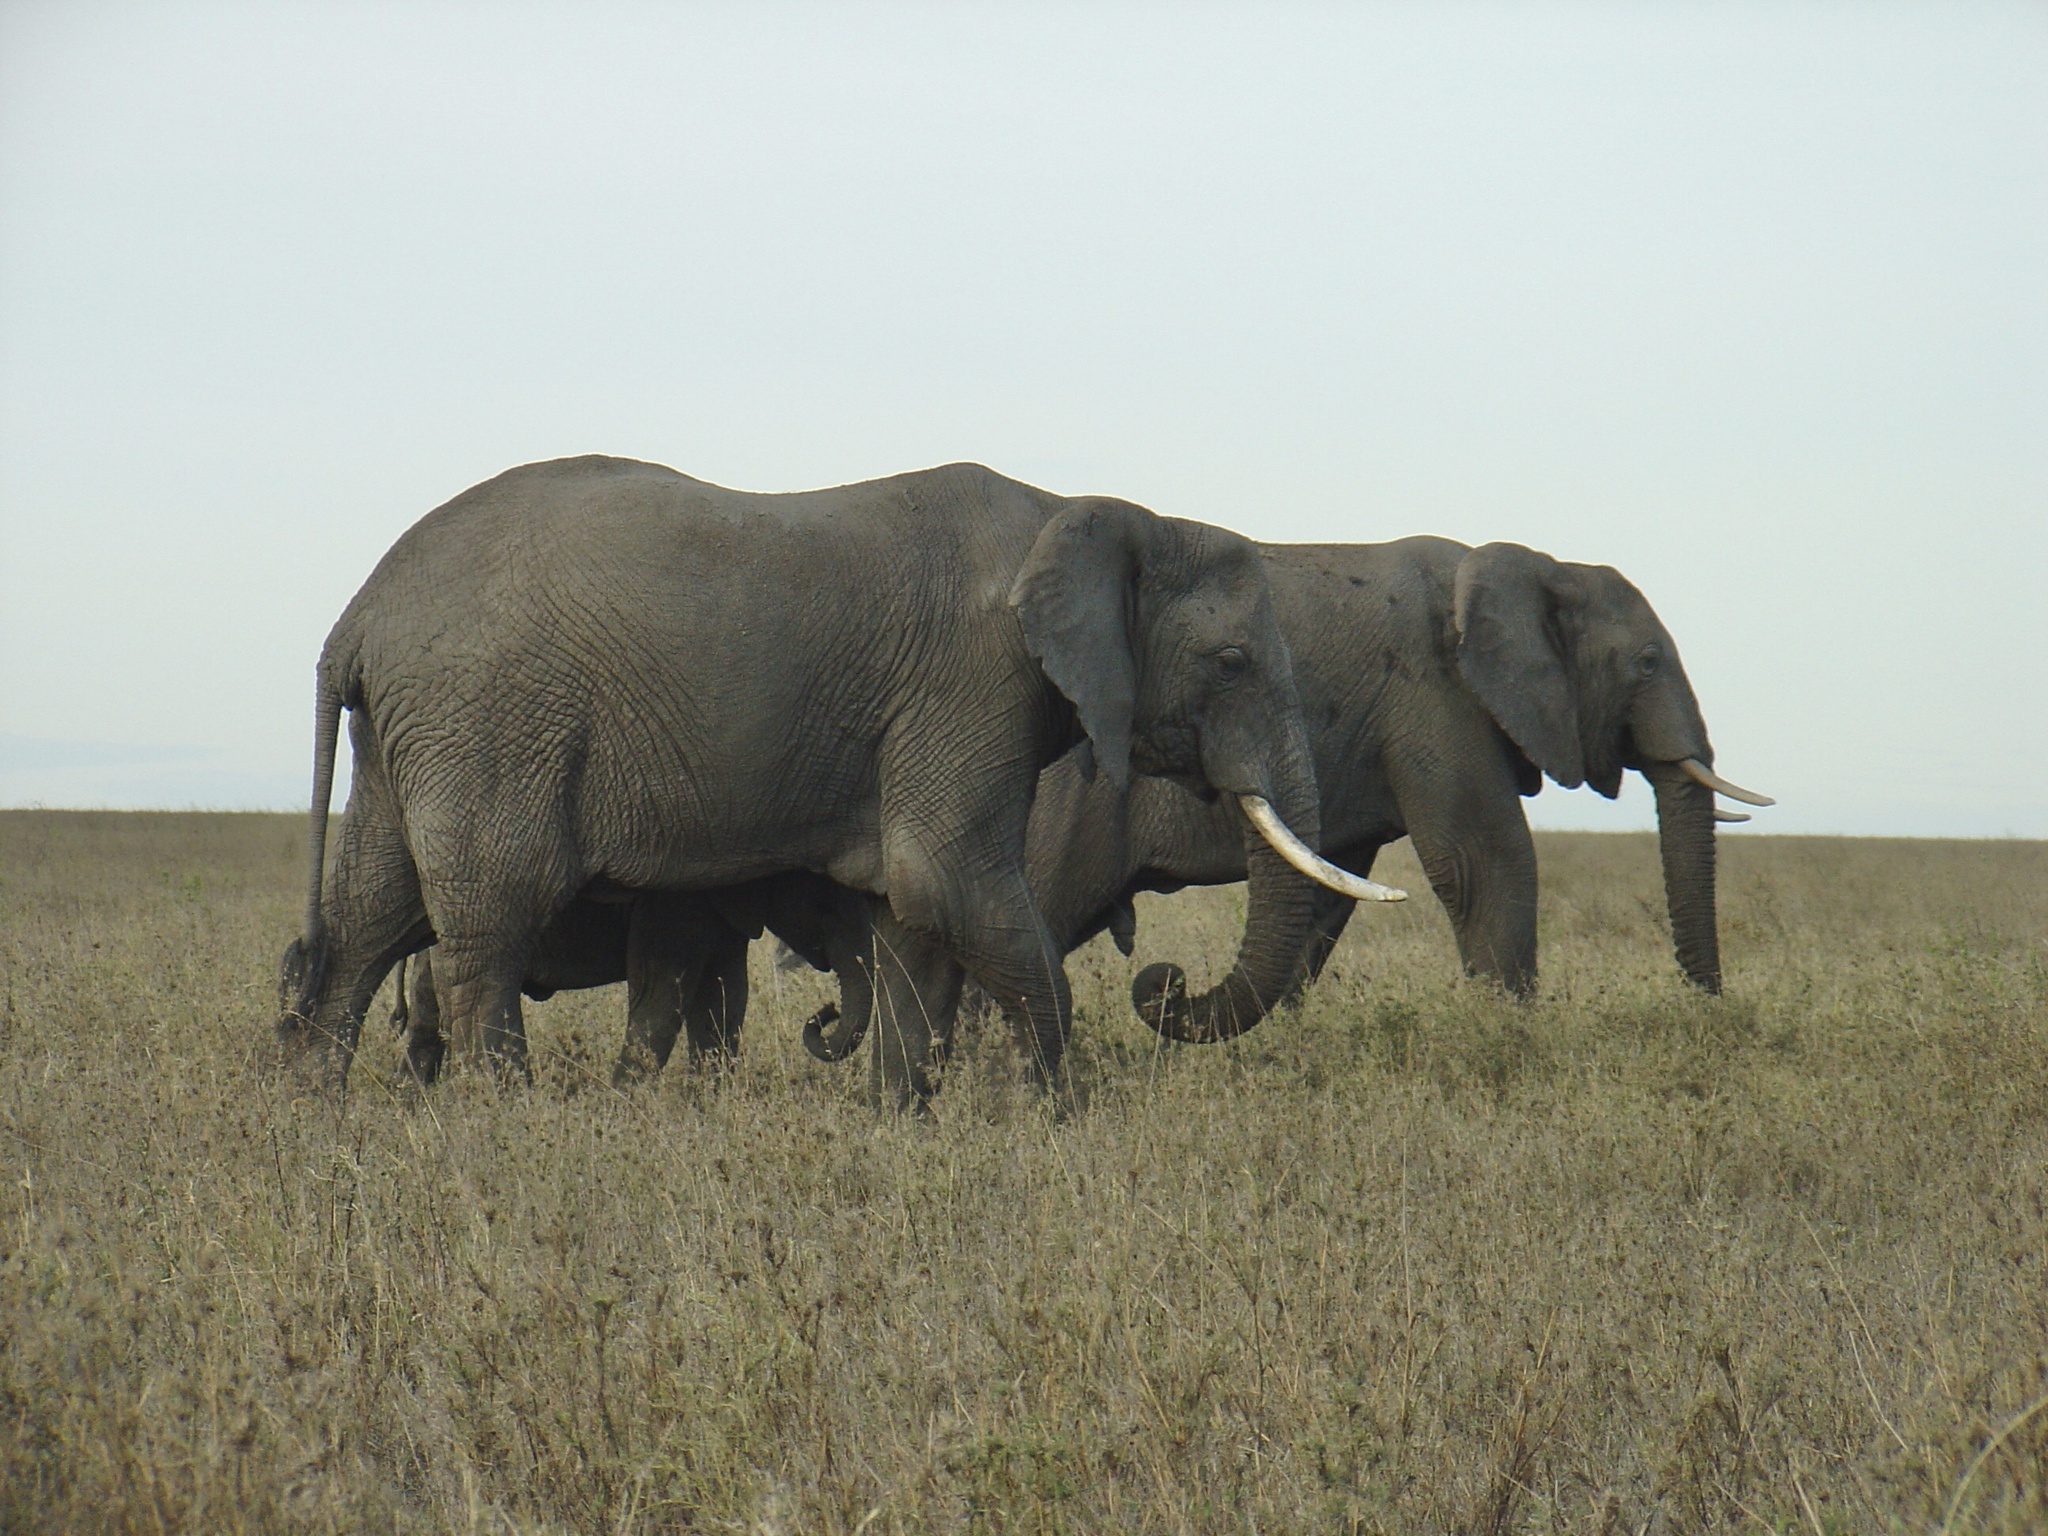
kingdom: Animalia
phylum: Chordata
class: Mammalia
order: Proboscidea
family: Elephantidae
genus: Loxodonta
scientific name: Loxodonta africana
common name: African elephant
